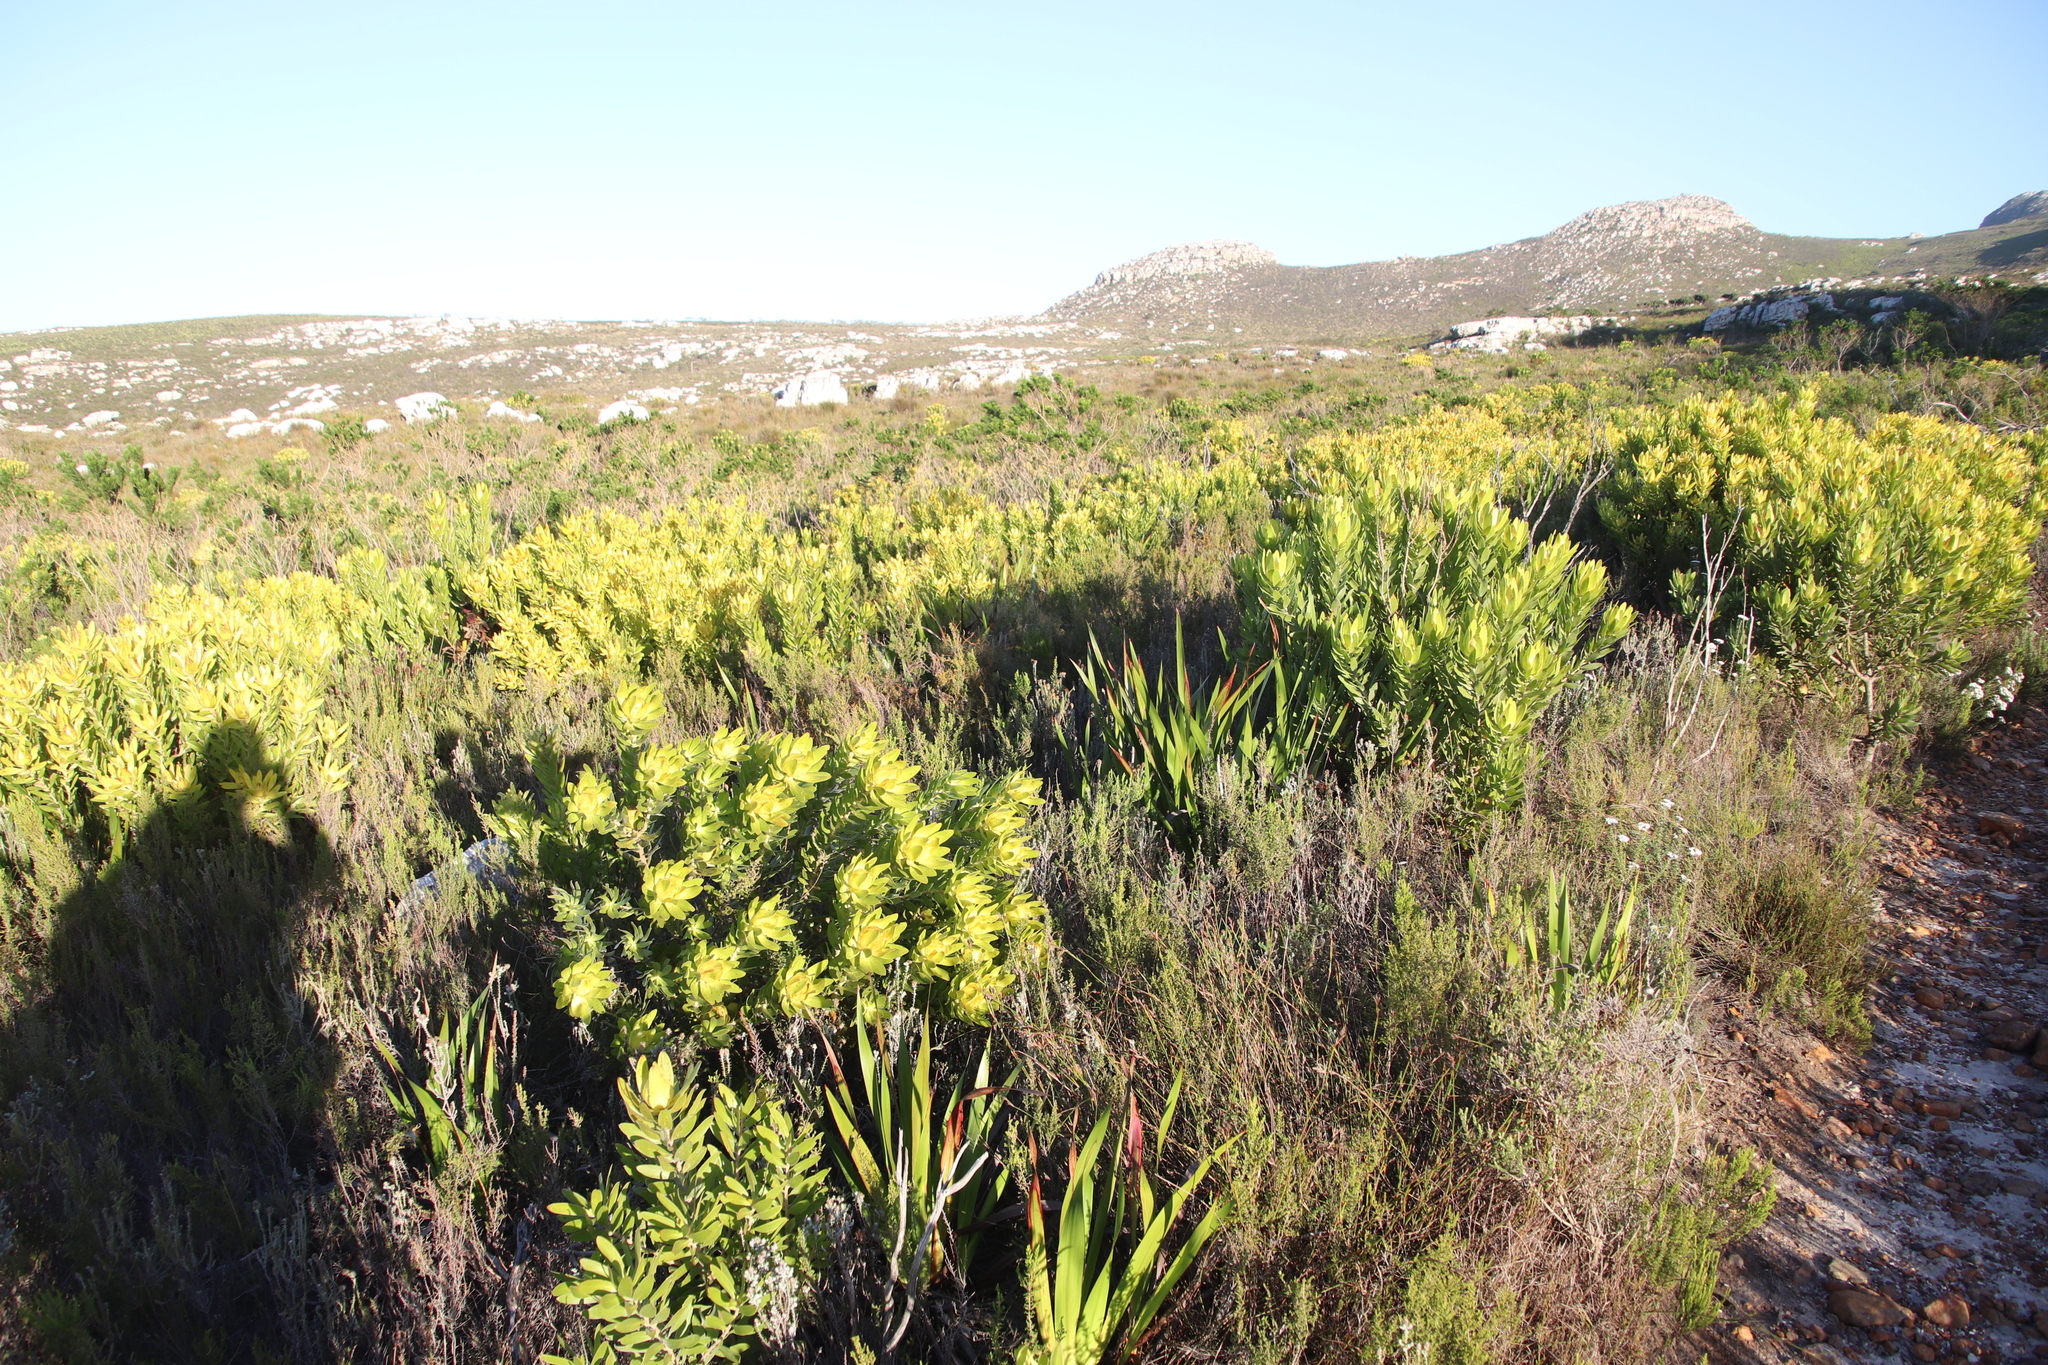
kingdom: Plantae
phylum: Tracheophyta
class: Magnoliopsida
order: Proteales
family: Proteaceae
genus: Leucadendron
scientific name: Leucadendron laureolum
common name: Golden sunshinebush
